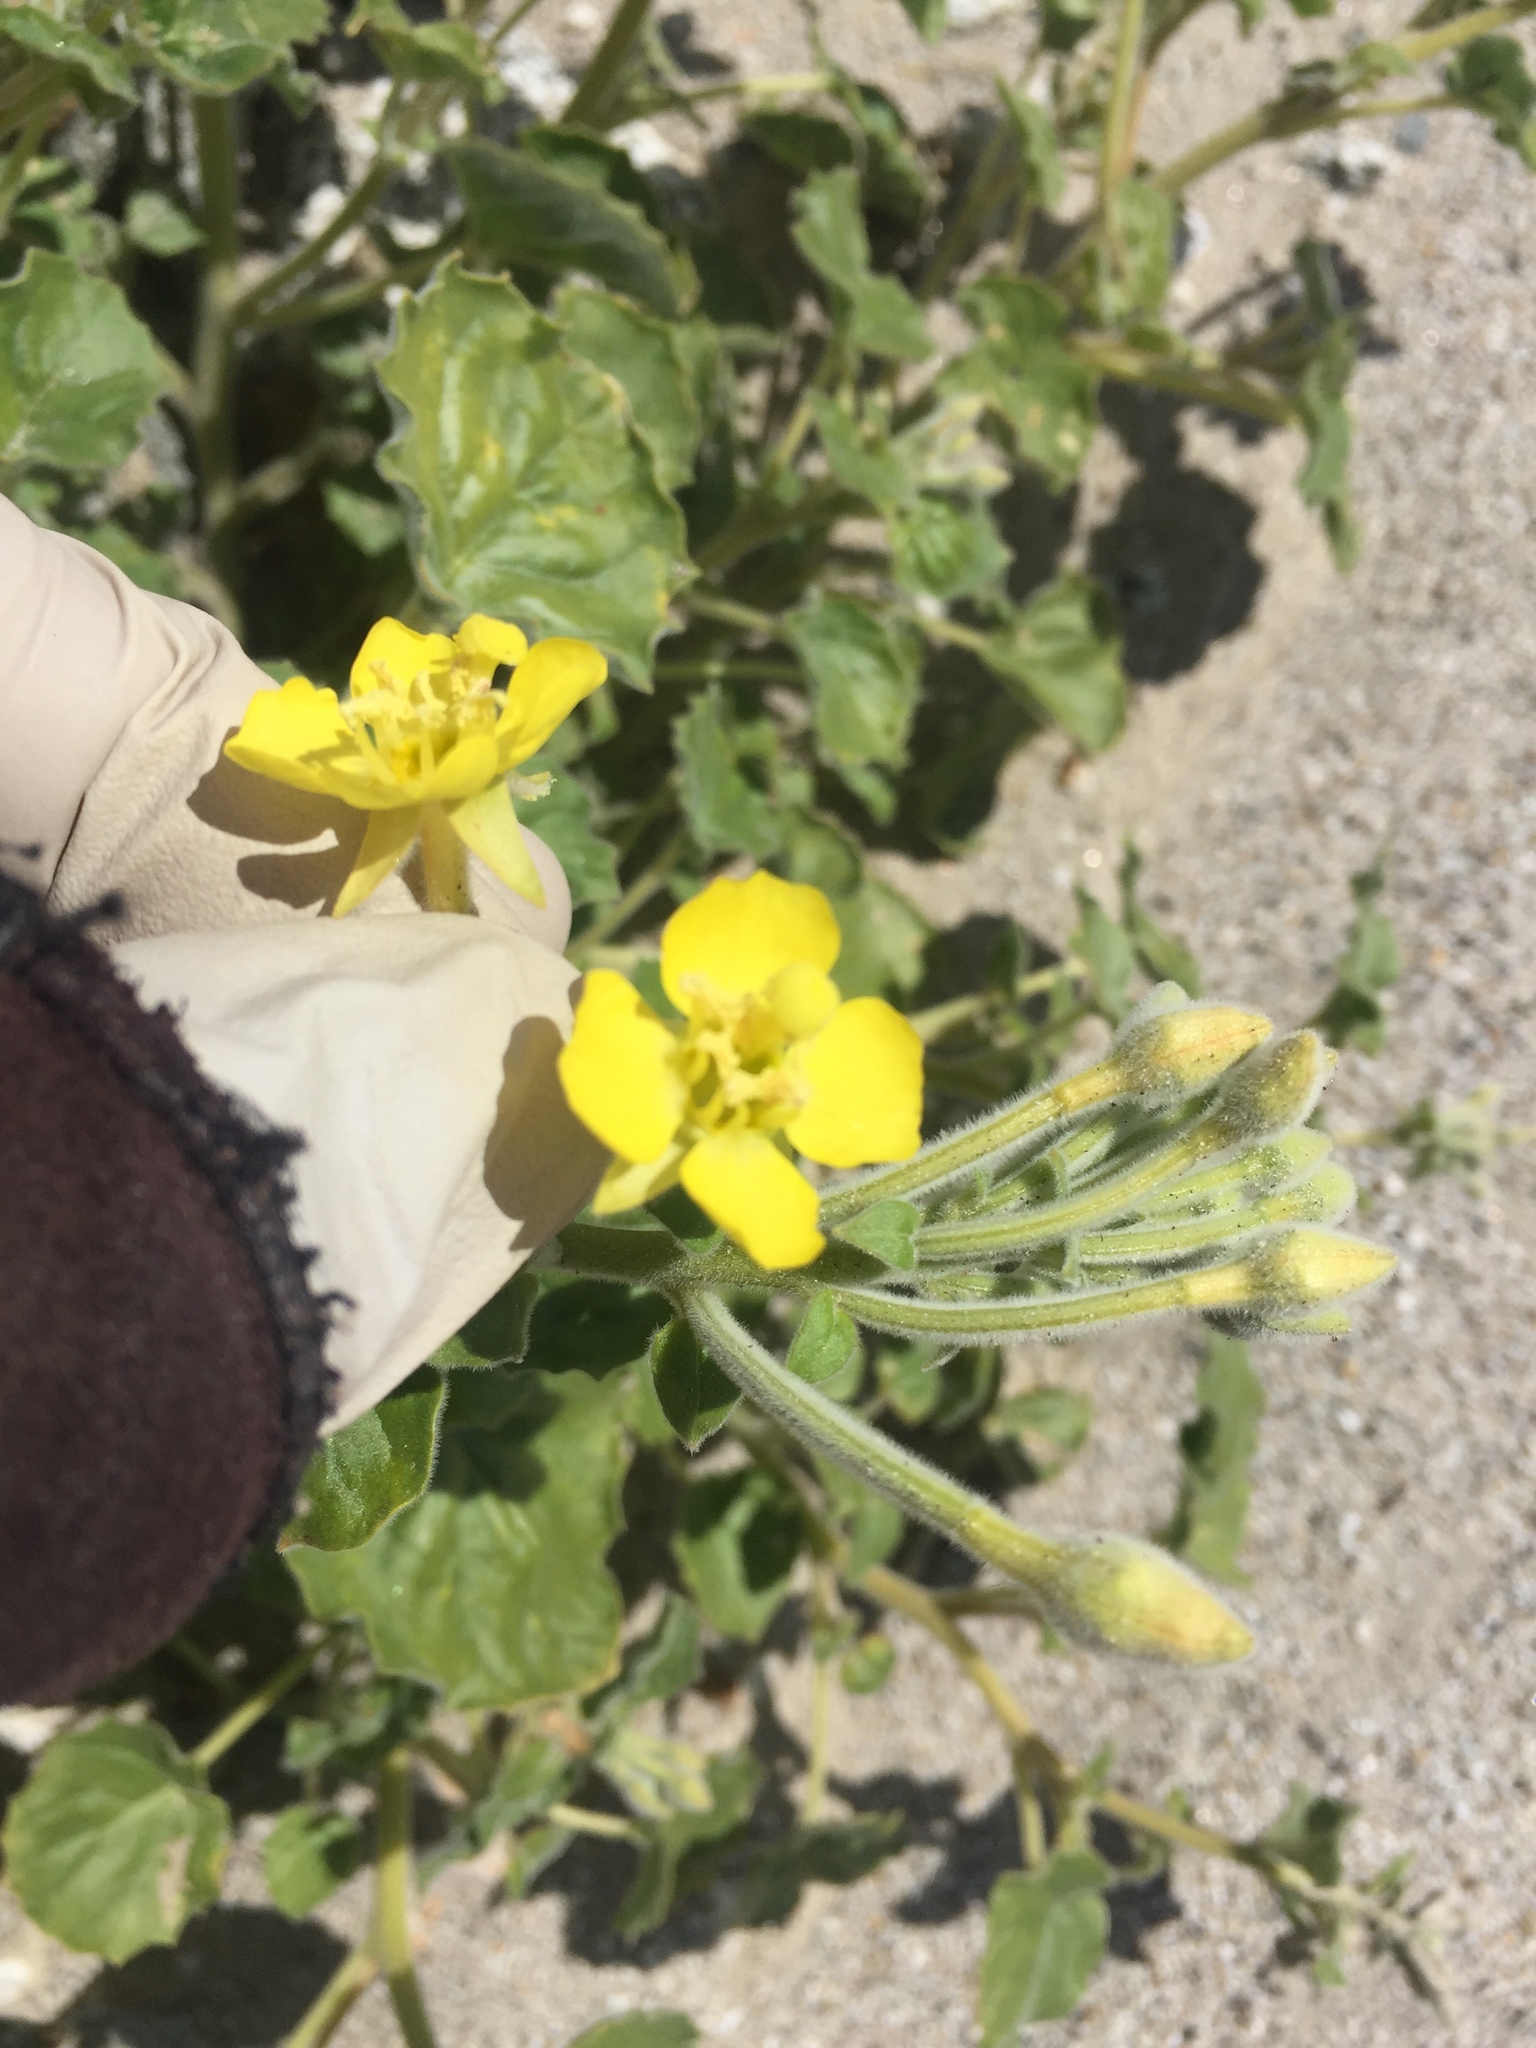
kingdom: Plantae
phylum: Tracheophyta
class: Magnoliopsida
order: Myrtales
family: Onagraceae
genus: Chylismia
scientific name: Chylismia cardiophylla
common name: Heartleaf suncup
